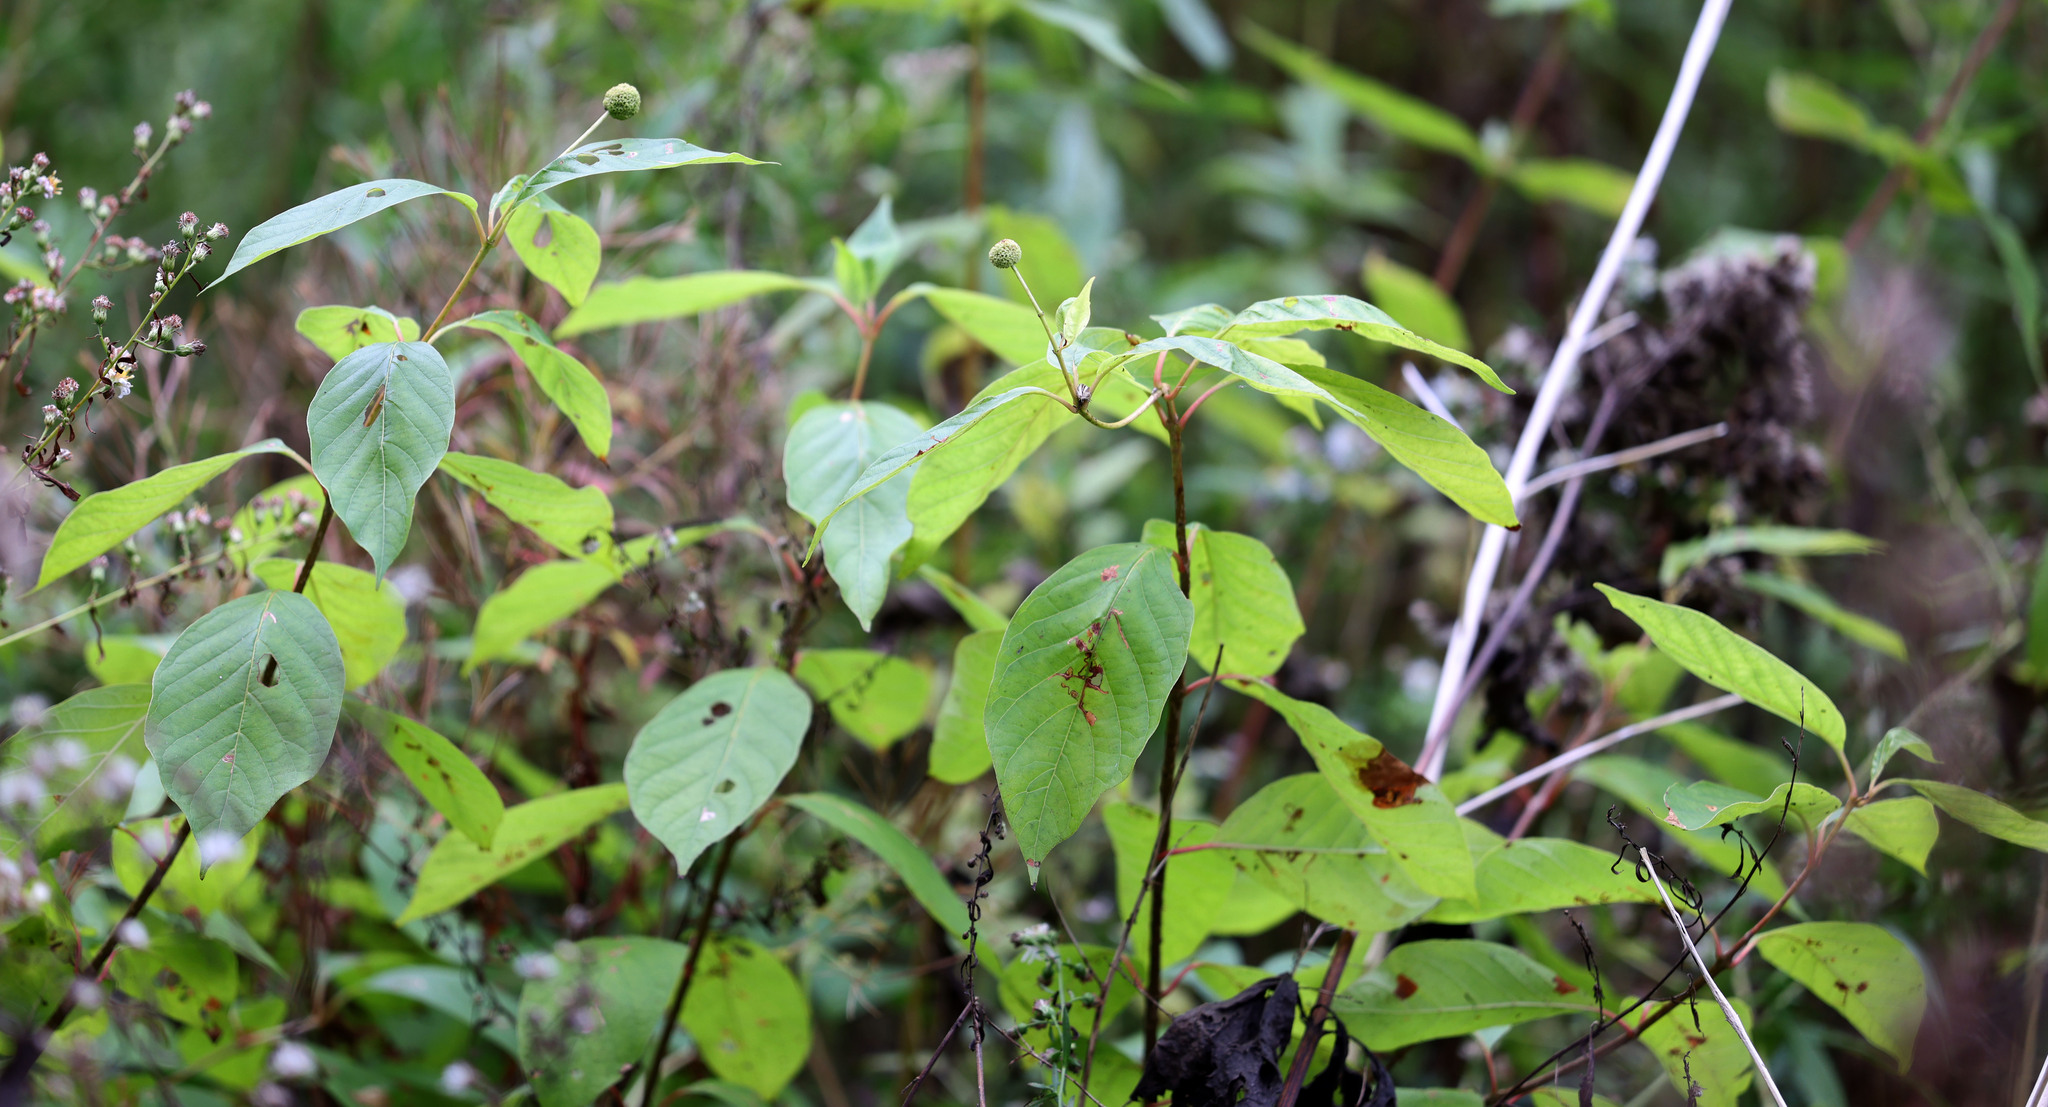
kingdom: Plantae
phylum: Tracheophyta
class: Magnoliopsida
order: Gentianales
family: Rubiaceae
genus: Cephalanthus
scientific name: Cephalanthus occidentalis
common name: Button-willow
